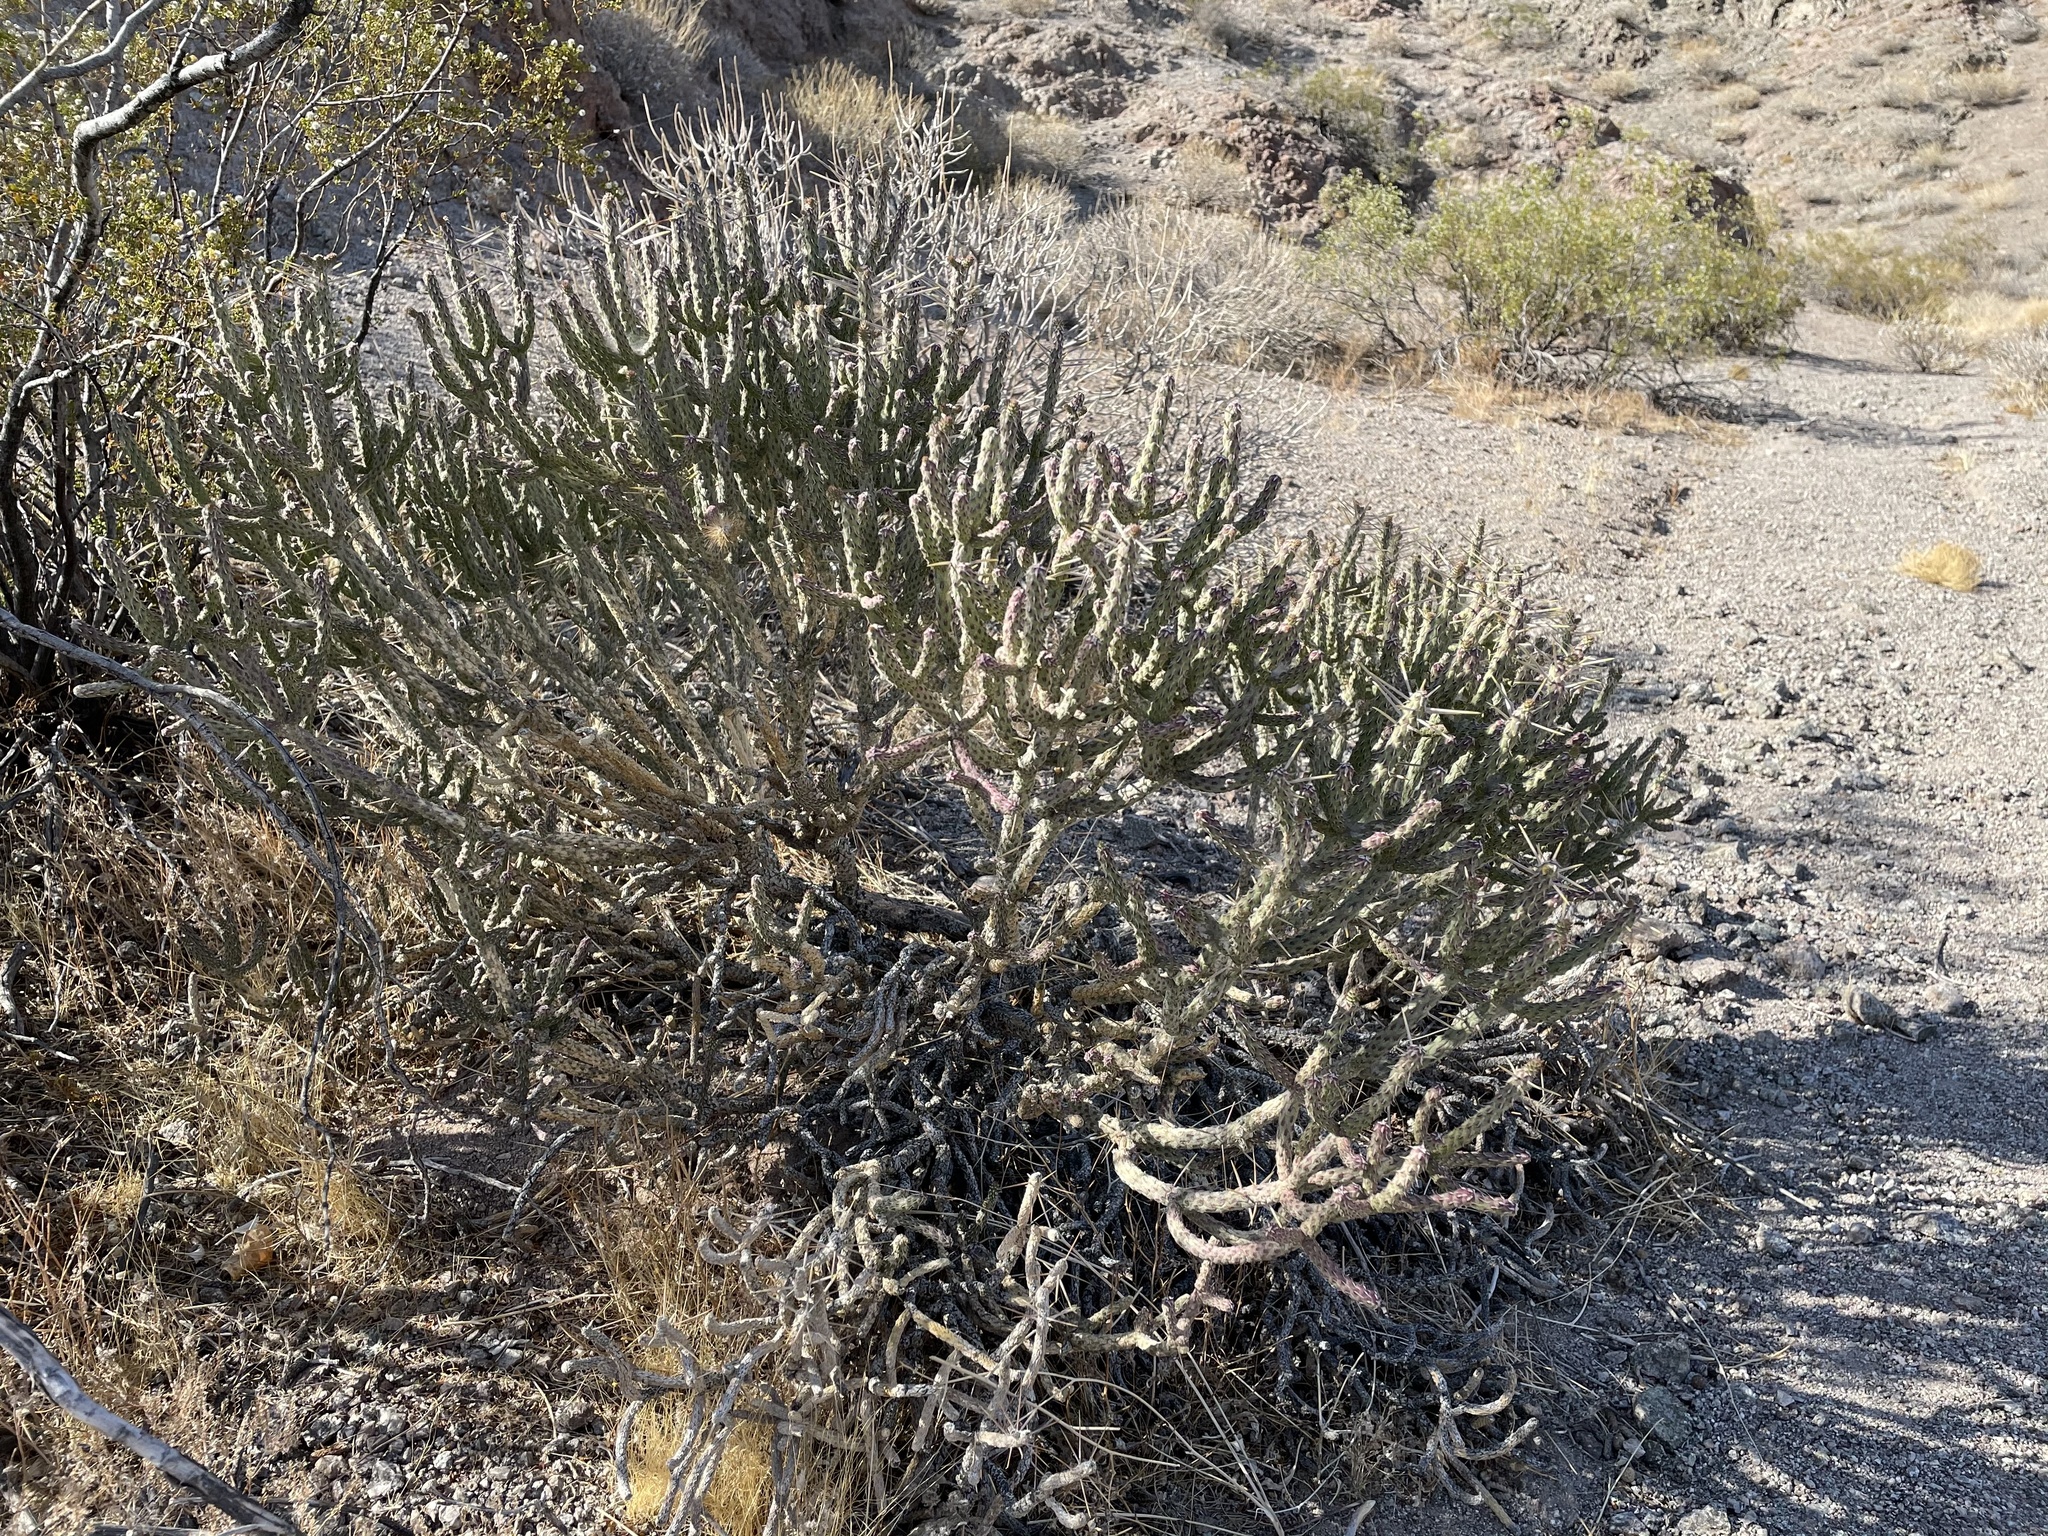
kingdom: Plantae
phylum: Tracheophyta
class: Magnoliopsida
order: Caryophyllales
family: Cactaceae
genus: Cylindropuntia
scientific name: Cylindropuntia ramosissima
